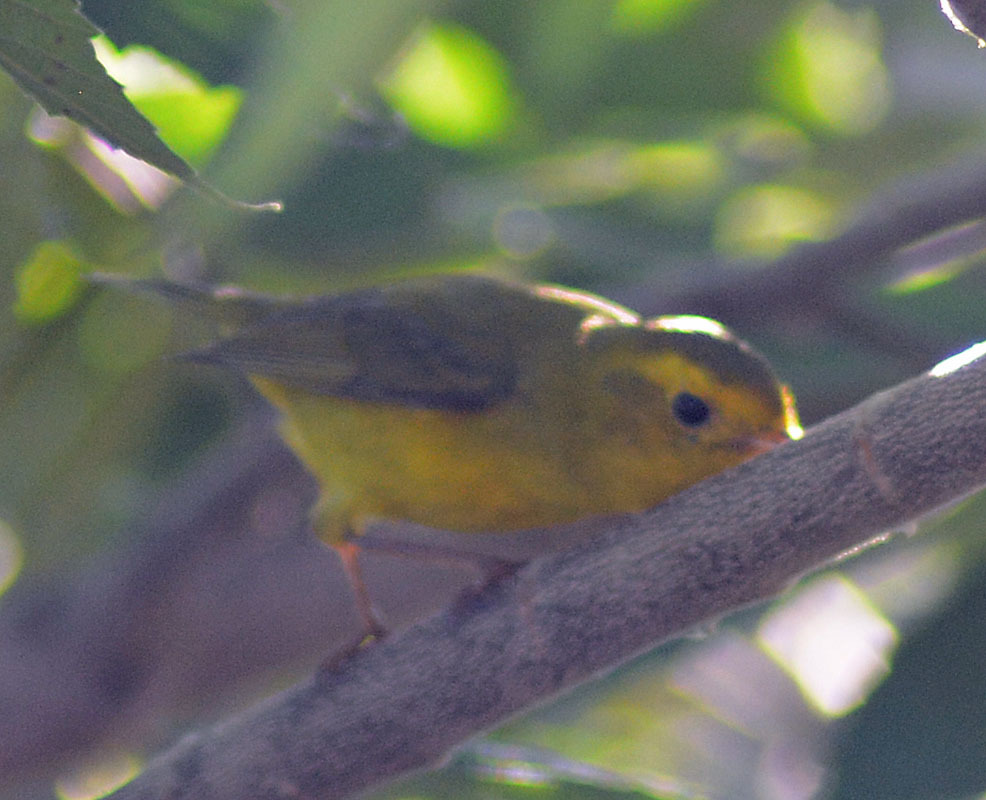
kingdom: Animalia
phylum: Chordata
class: Aves
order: Passeriformes
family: Parulidae
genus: Cardellina
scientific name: Cardellina pusilla
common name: Wilson's warbler
